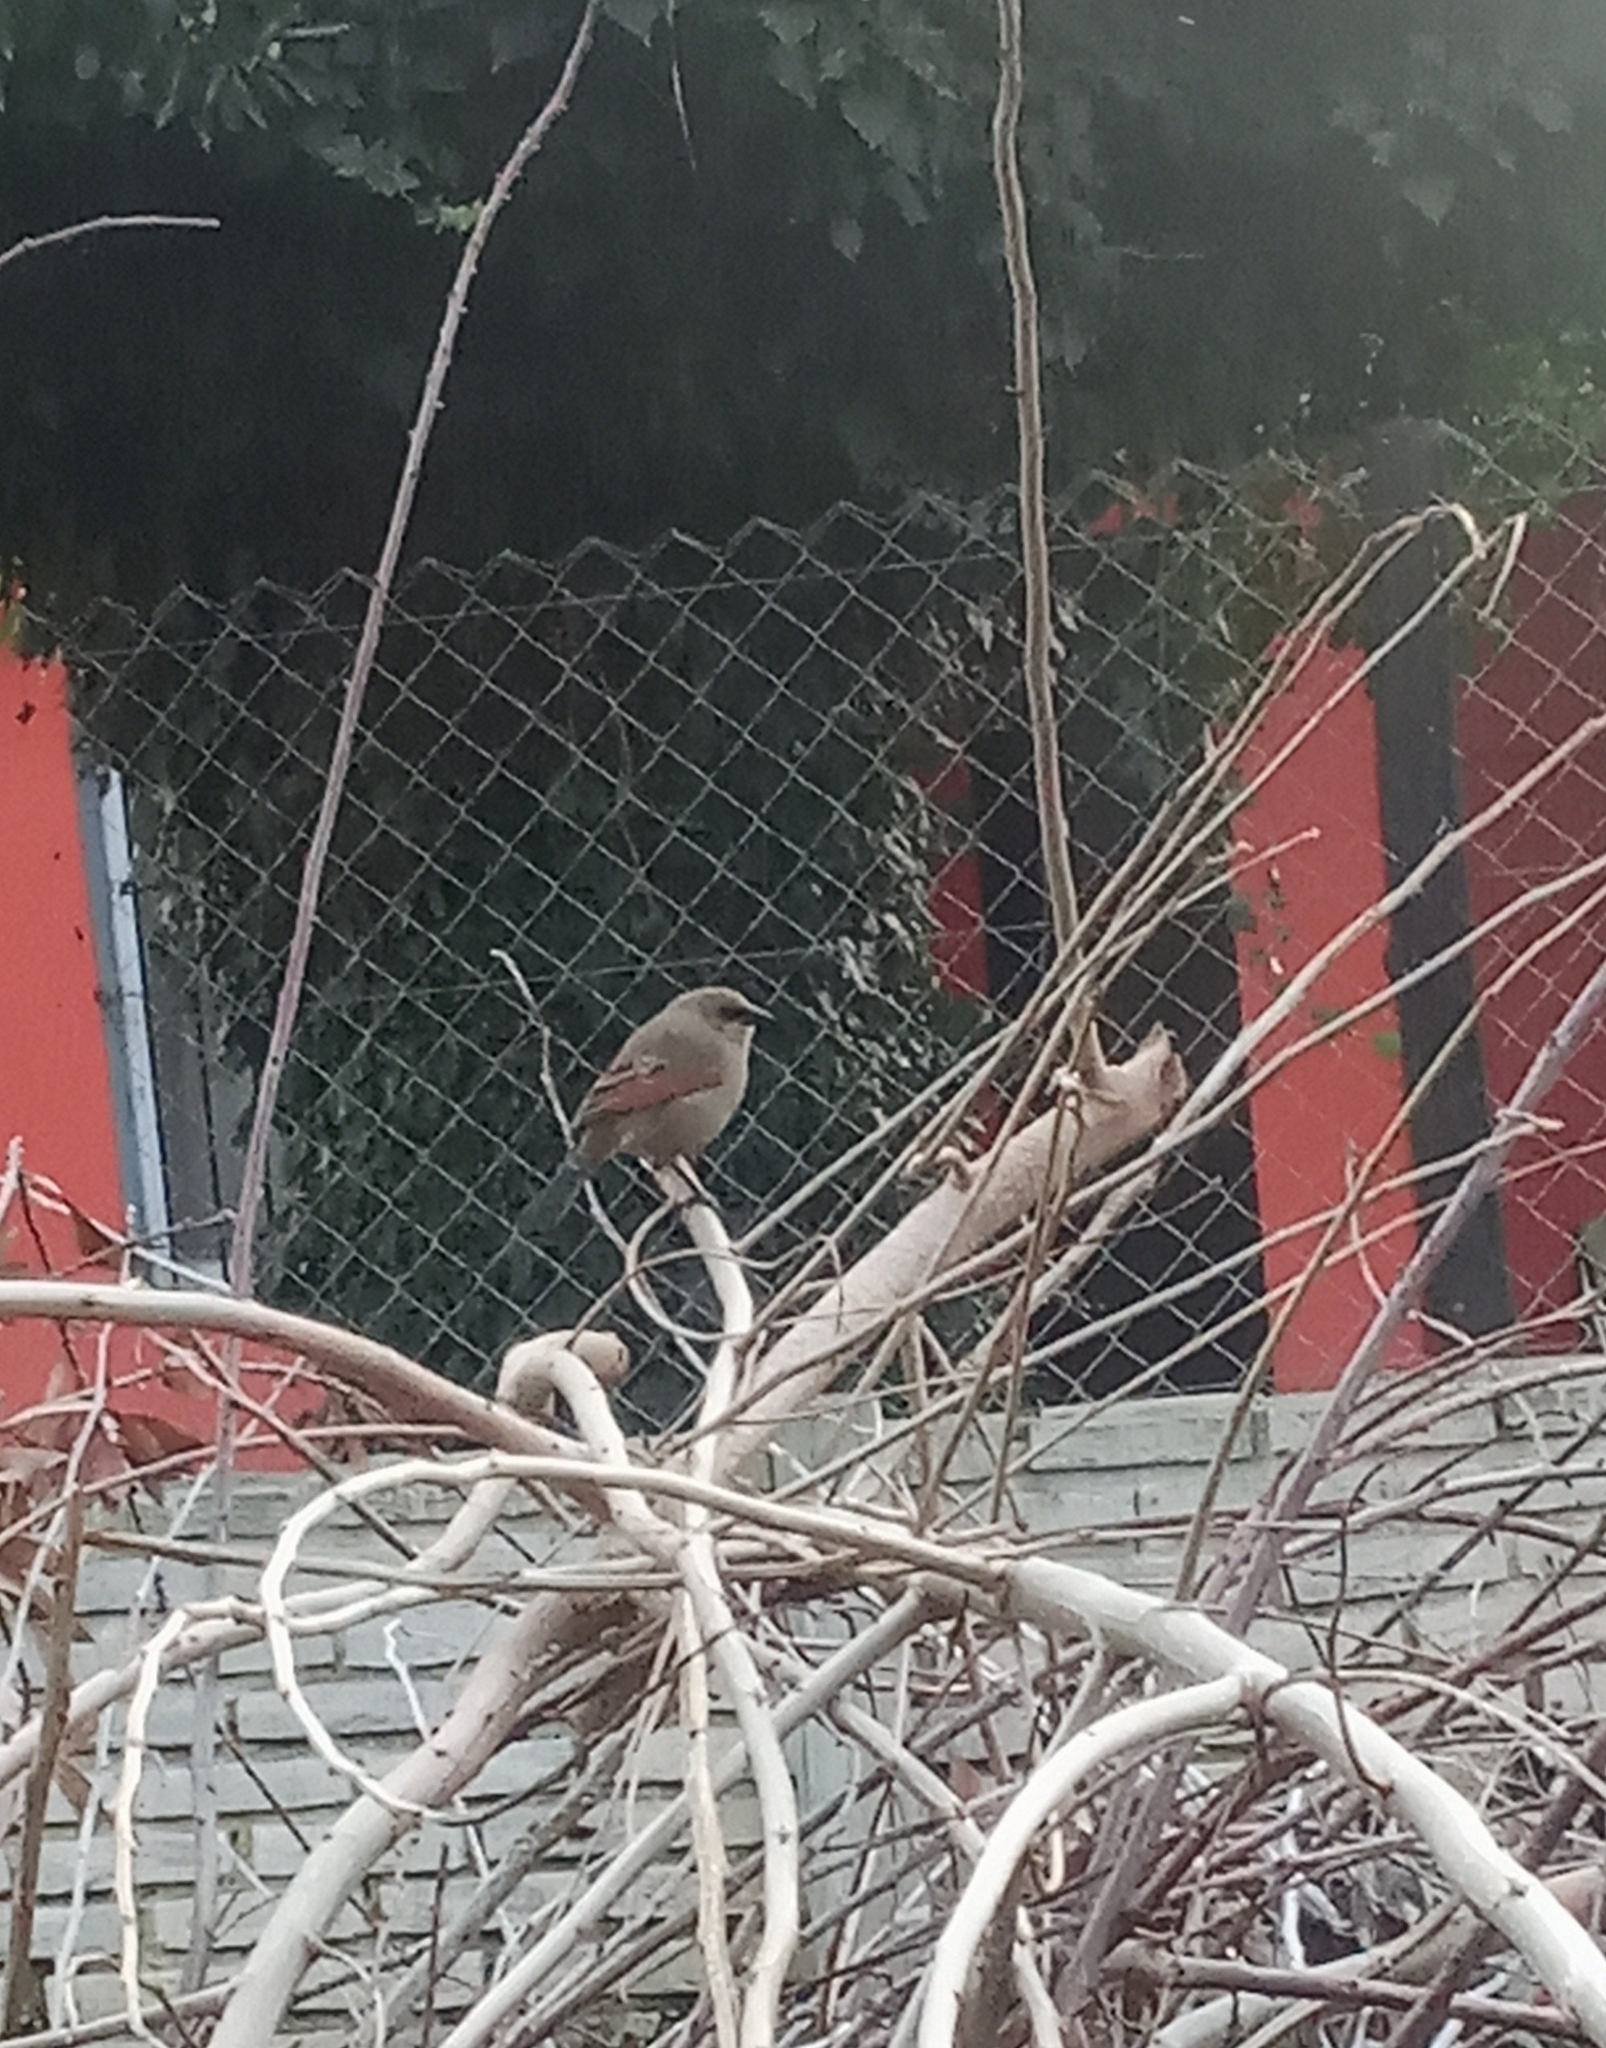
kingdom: Animalia
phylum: Chordata
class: Aves
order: Passeriformes
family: Icteridae
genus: Agelaioides
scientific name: Agelaioides badius
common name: Baywing
